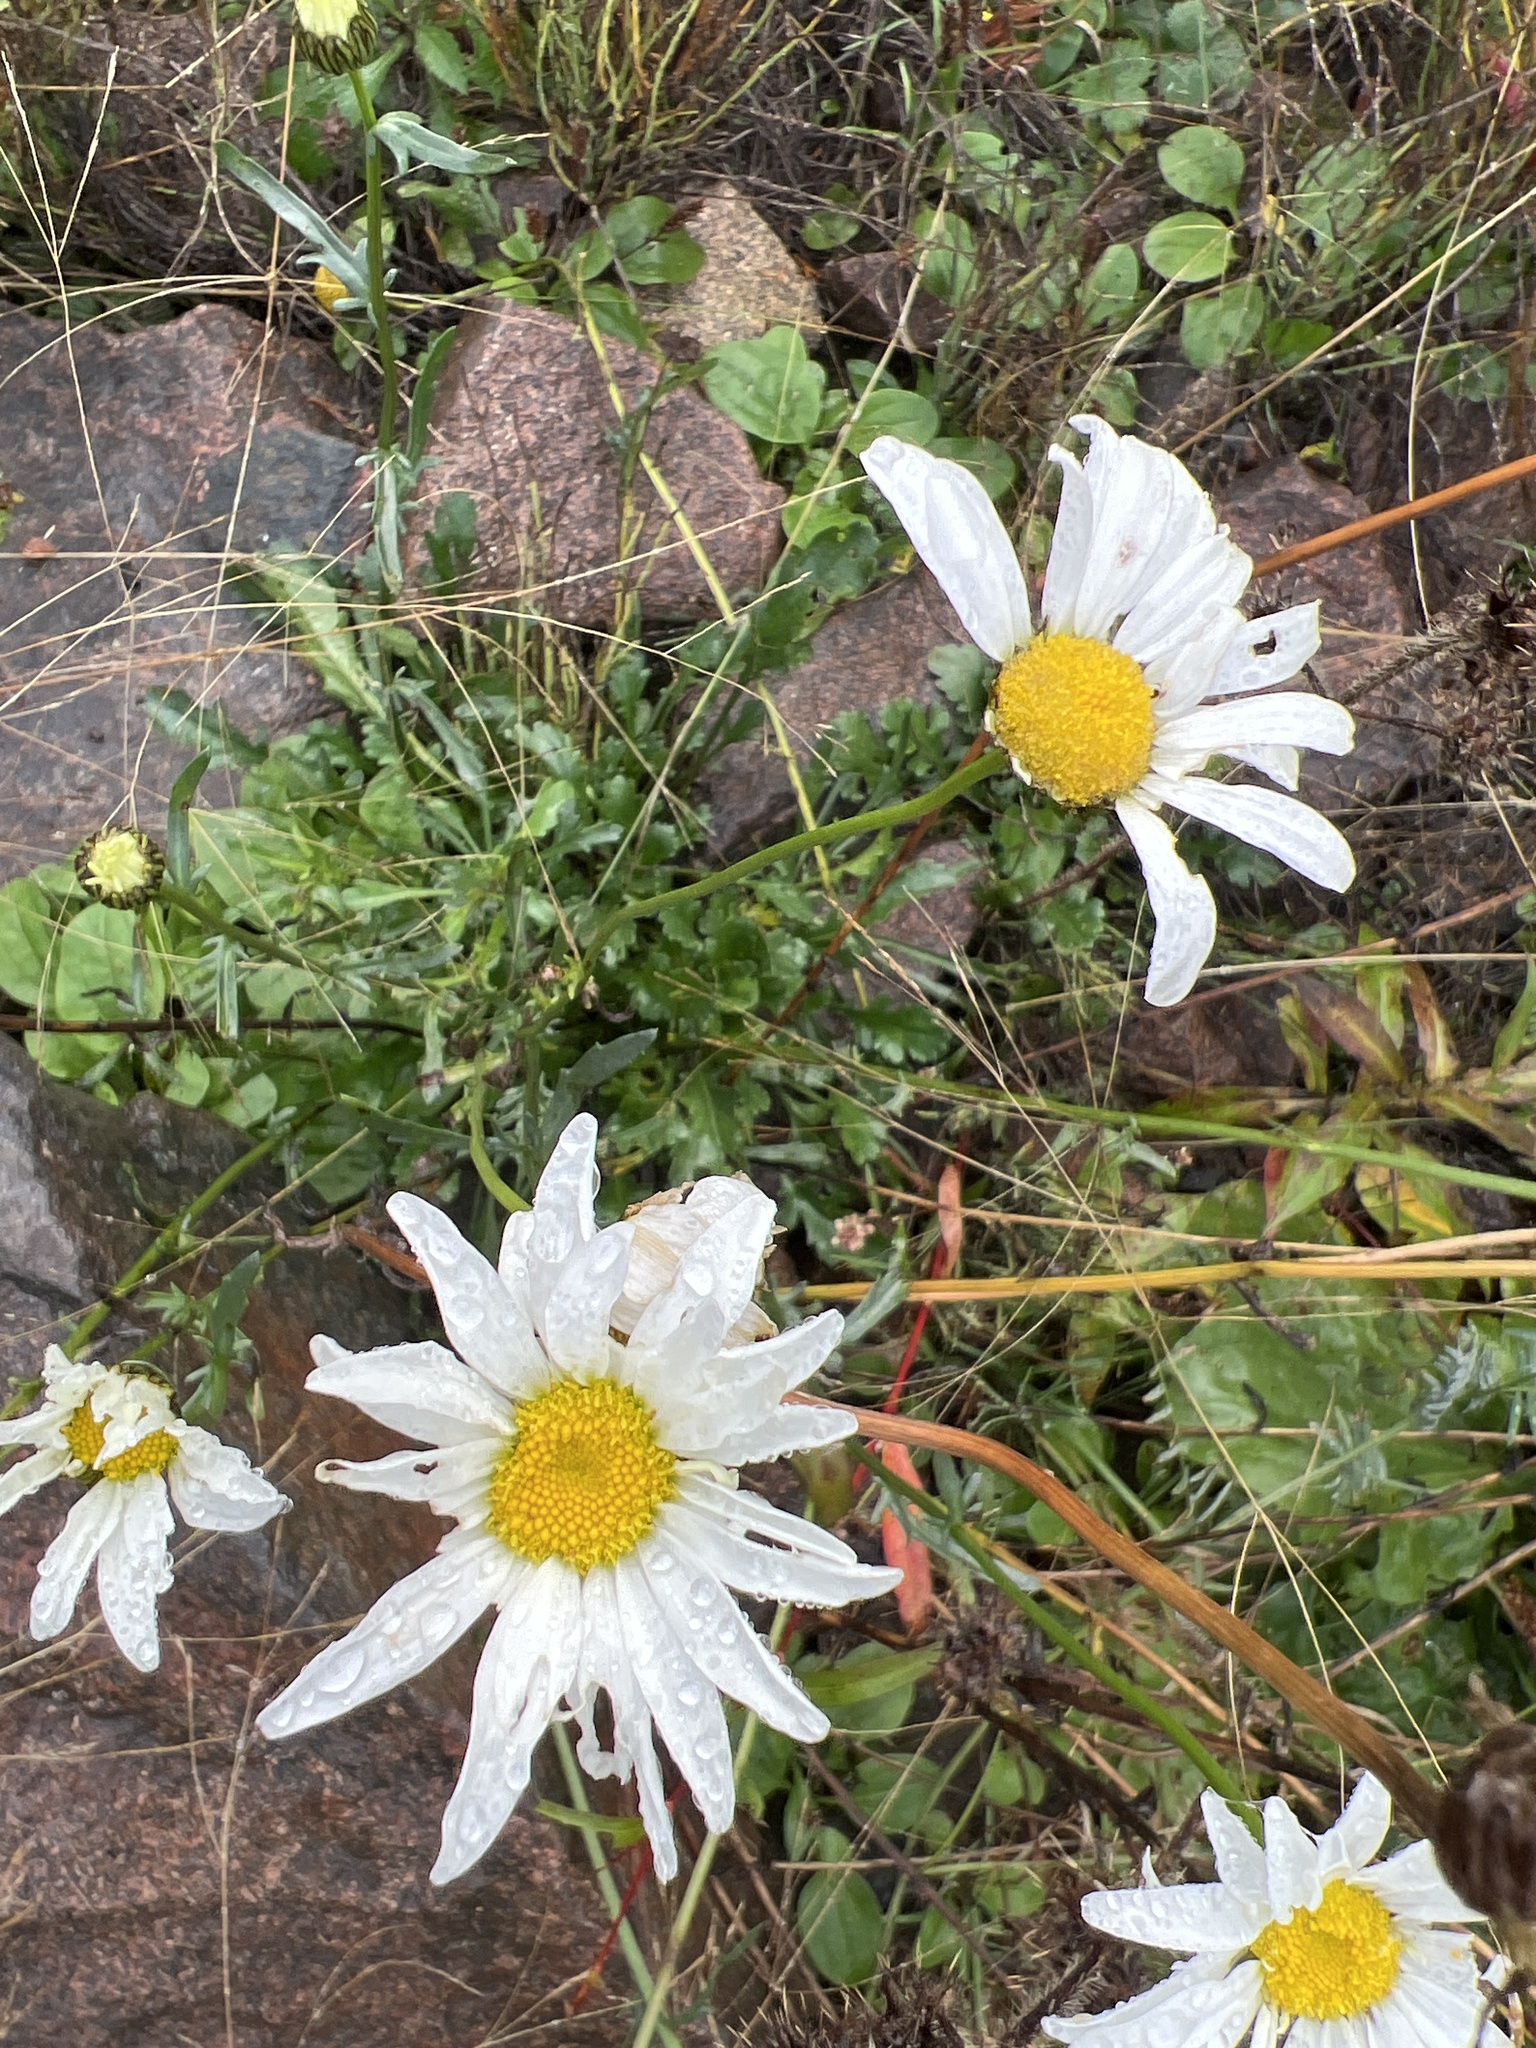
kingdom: Plantae
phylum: Tracheophyta
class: Magnoliopsida
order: Asterales
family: Asteraceae
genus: Leucanthemum
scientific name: Leucanthemum vulgare
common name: Oxeye daisy
